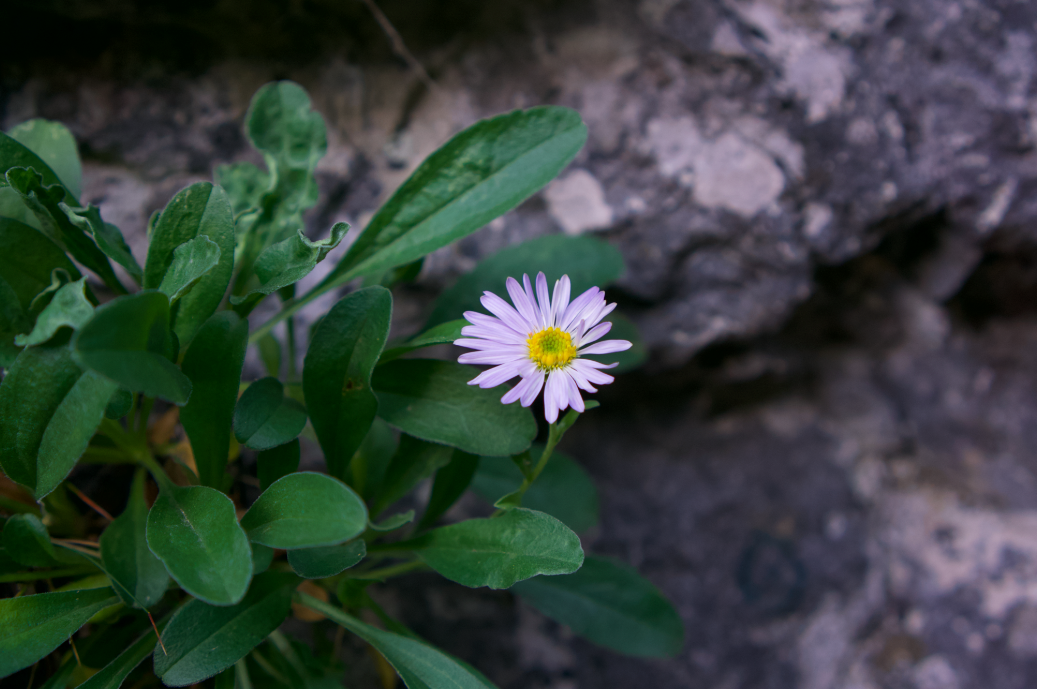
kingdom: Plantae
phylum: Tracheophyta
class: Magnoliopsida
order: Asterales
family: Asteraceae
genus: Aster
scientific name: Aster alpinus
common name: Alpine aster
